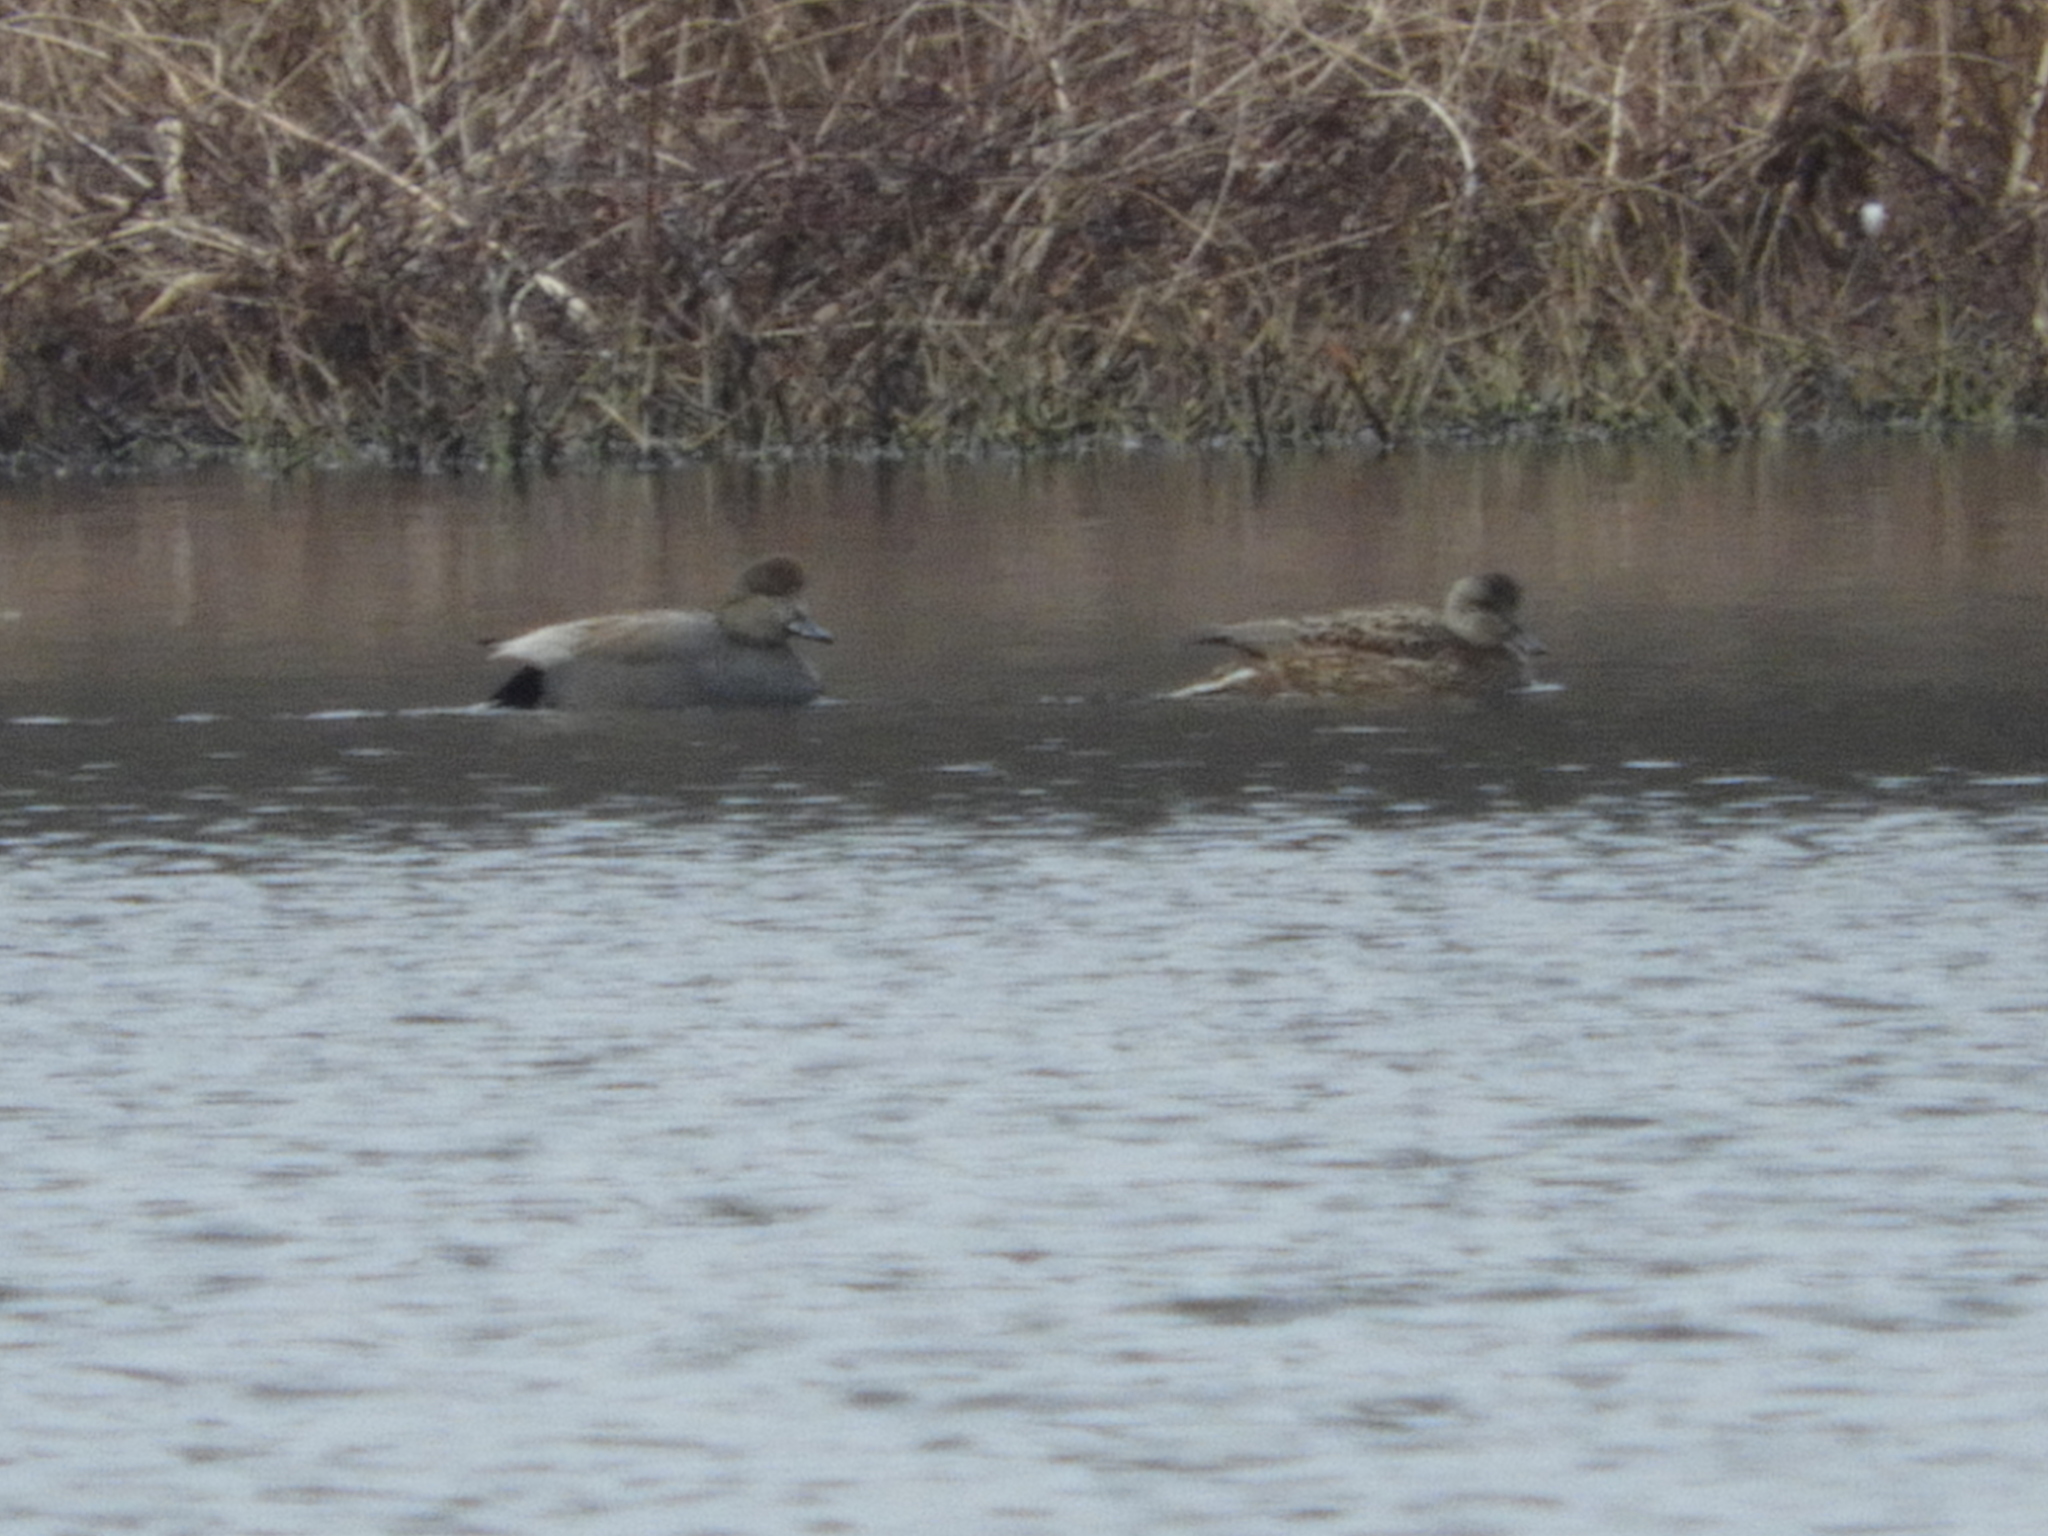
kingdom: Animalia
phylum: Chordata
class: Aves
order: Anseriformes
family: Anatidae
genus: Mareca
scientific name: Mareca strepera
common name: Gadwall
